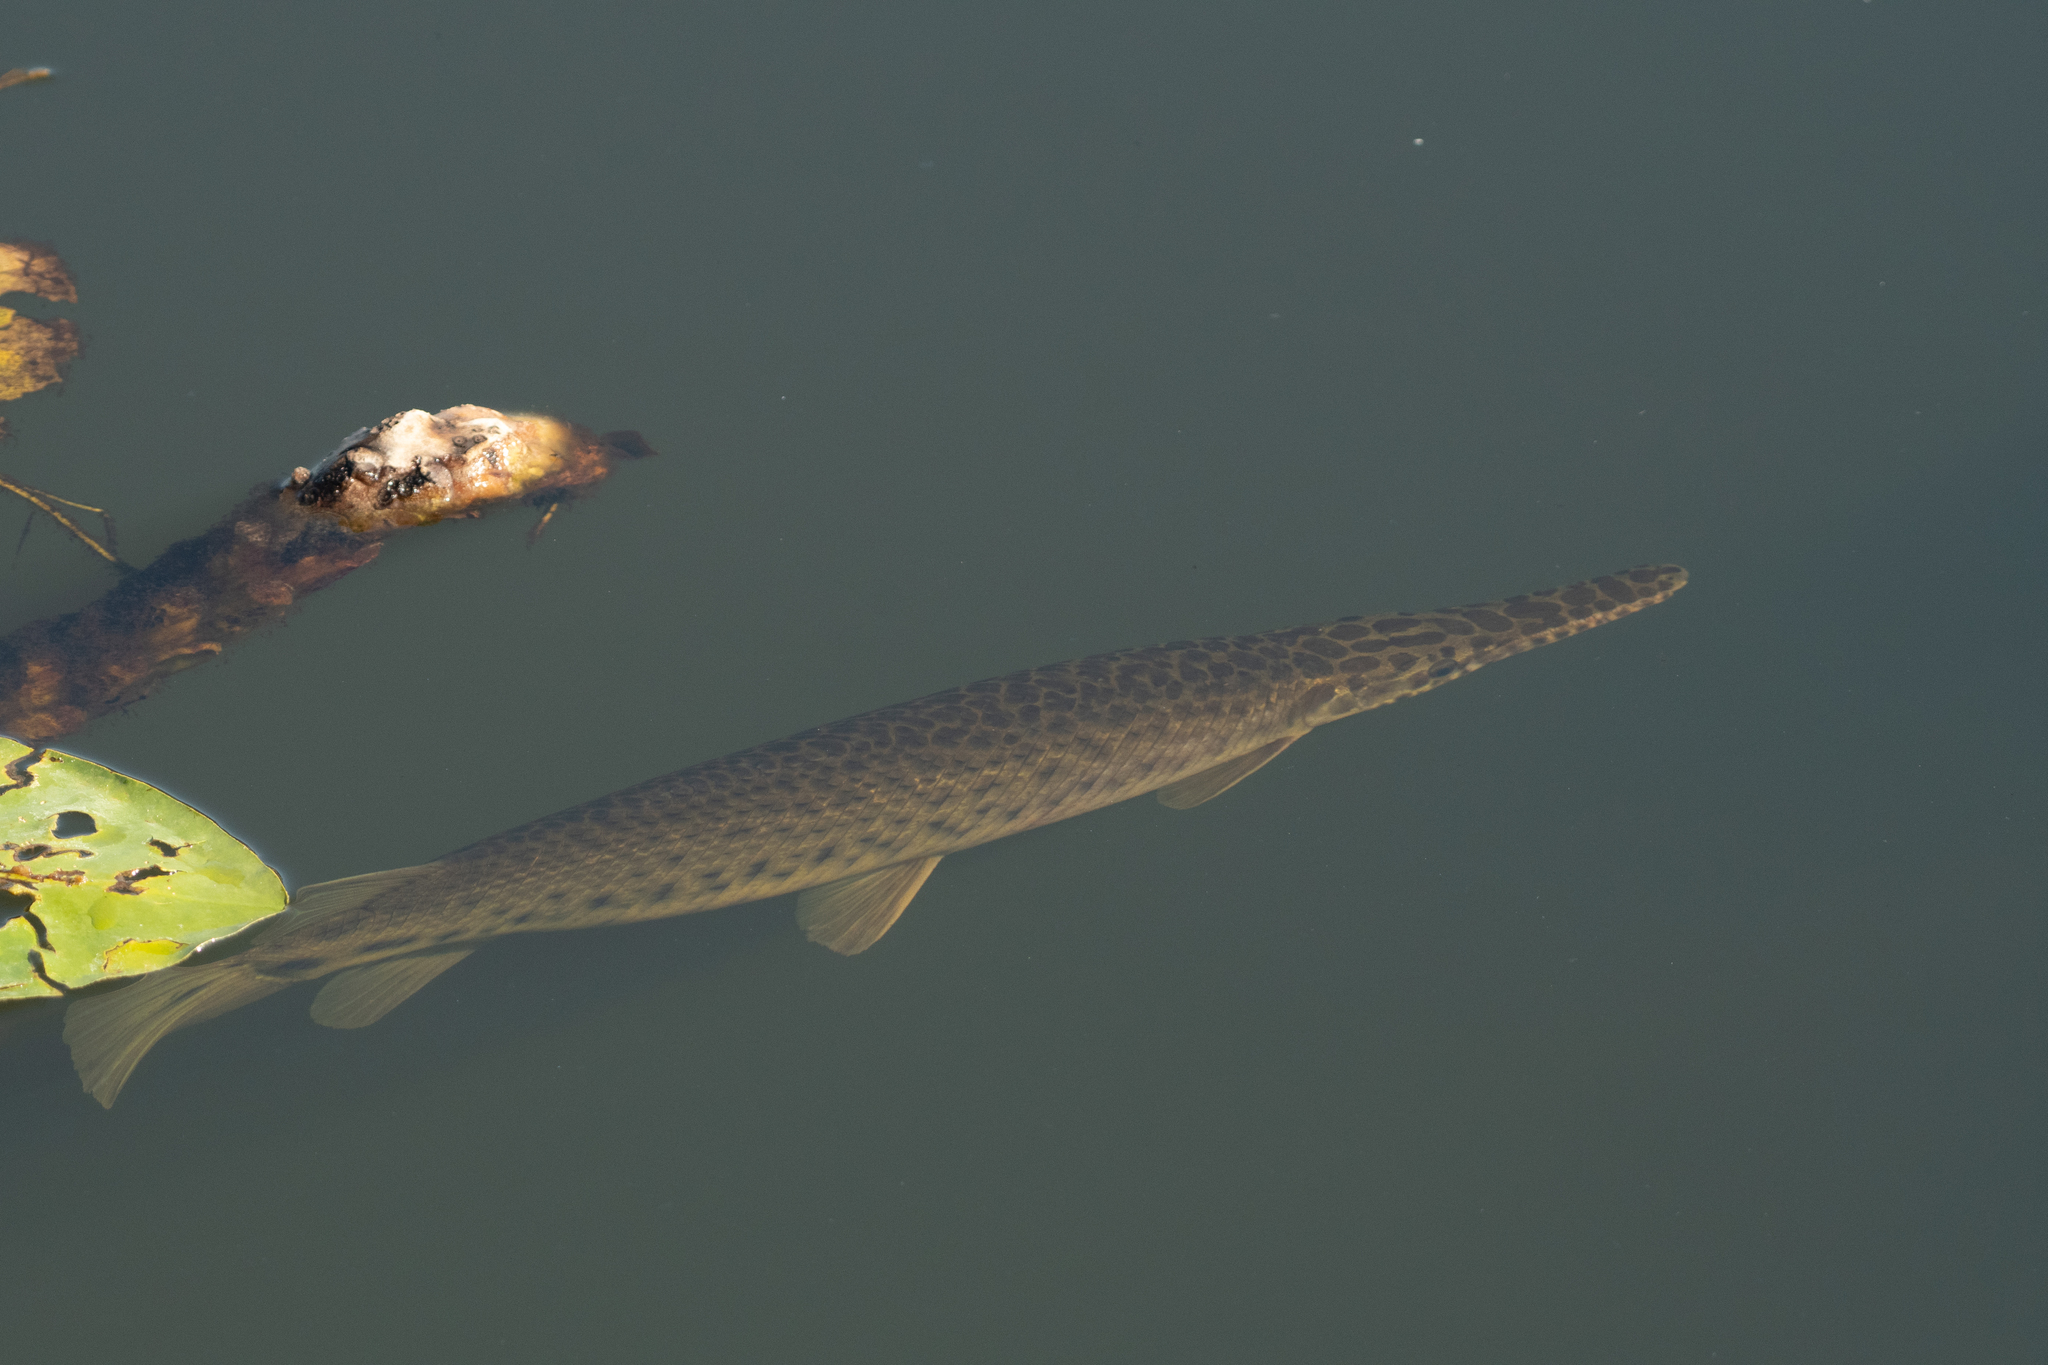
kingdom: Animalia
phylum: Chordata
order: Lepisosteiformes
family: Lepisosteidae
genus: Lepisosteus
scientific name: Lepisosteus platyrhincus
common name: Florida gar
